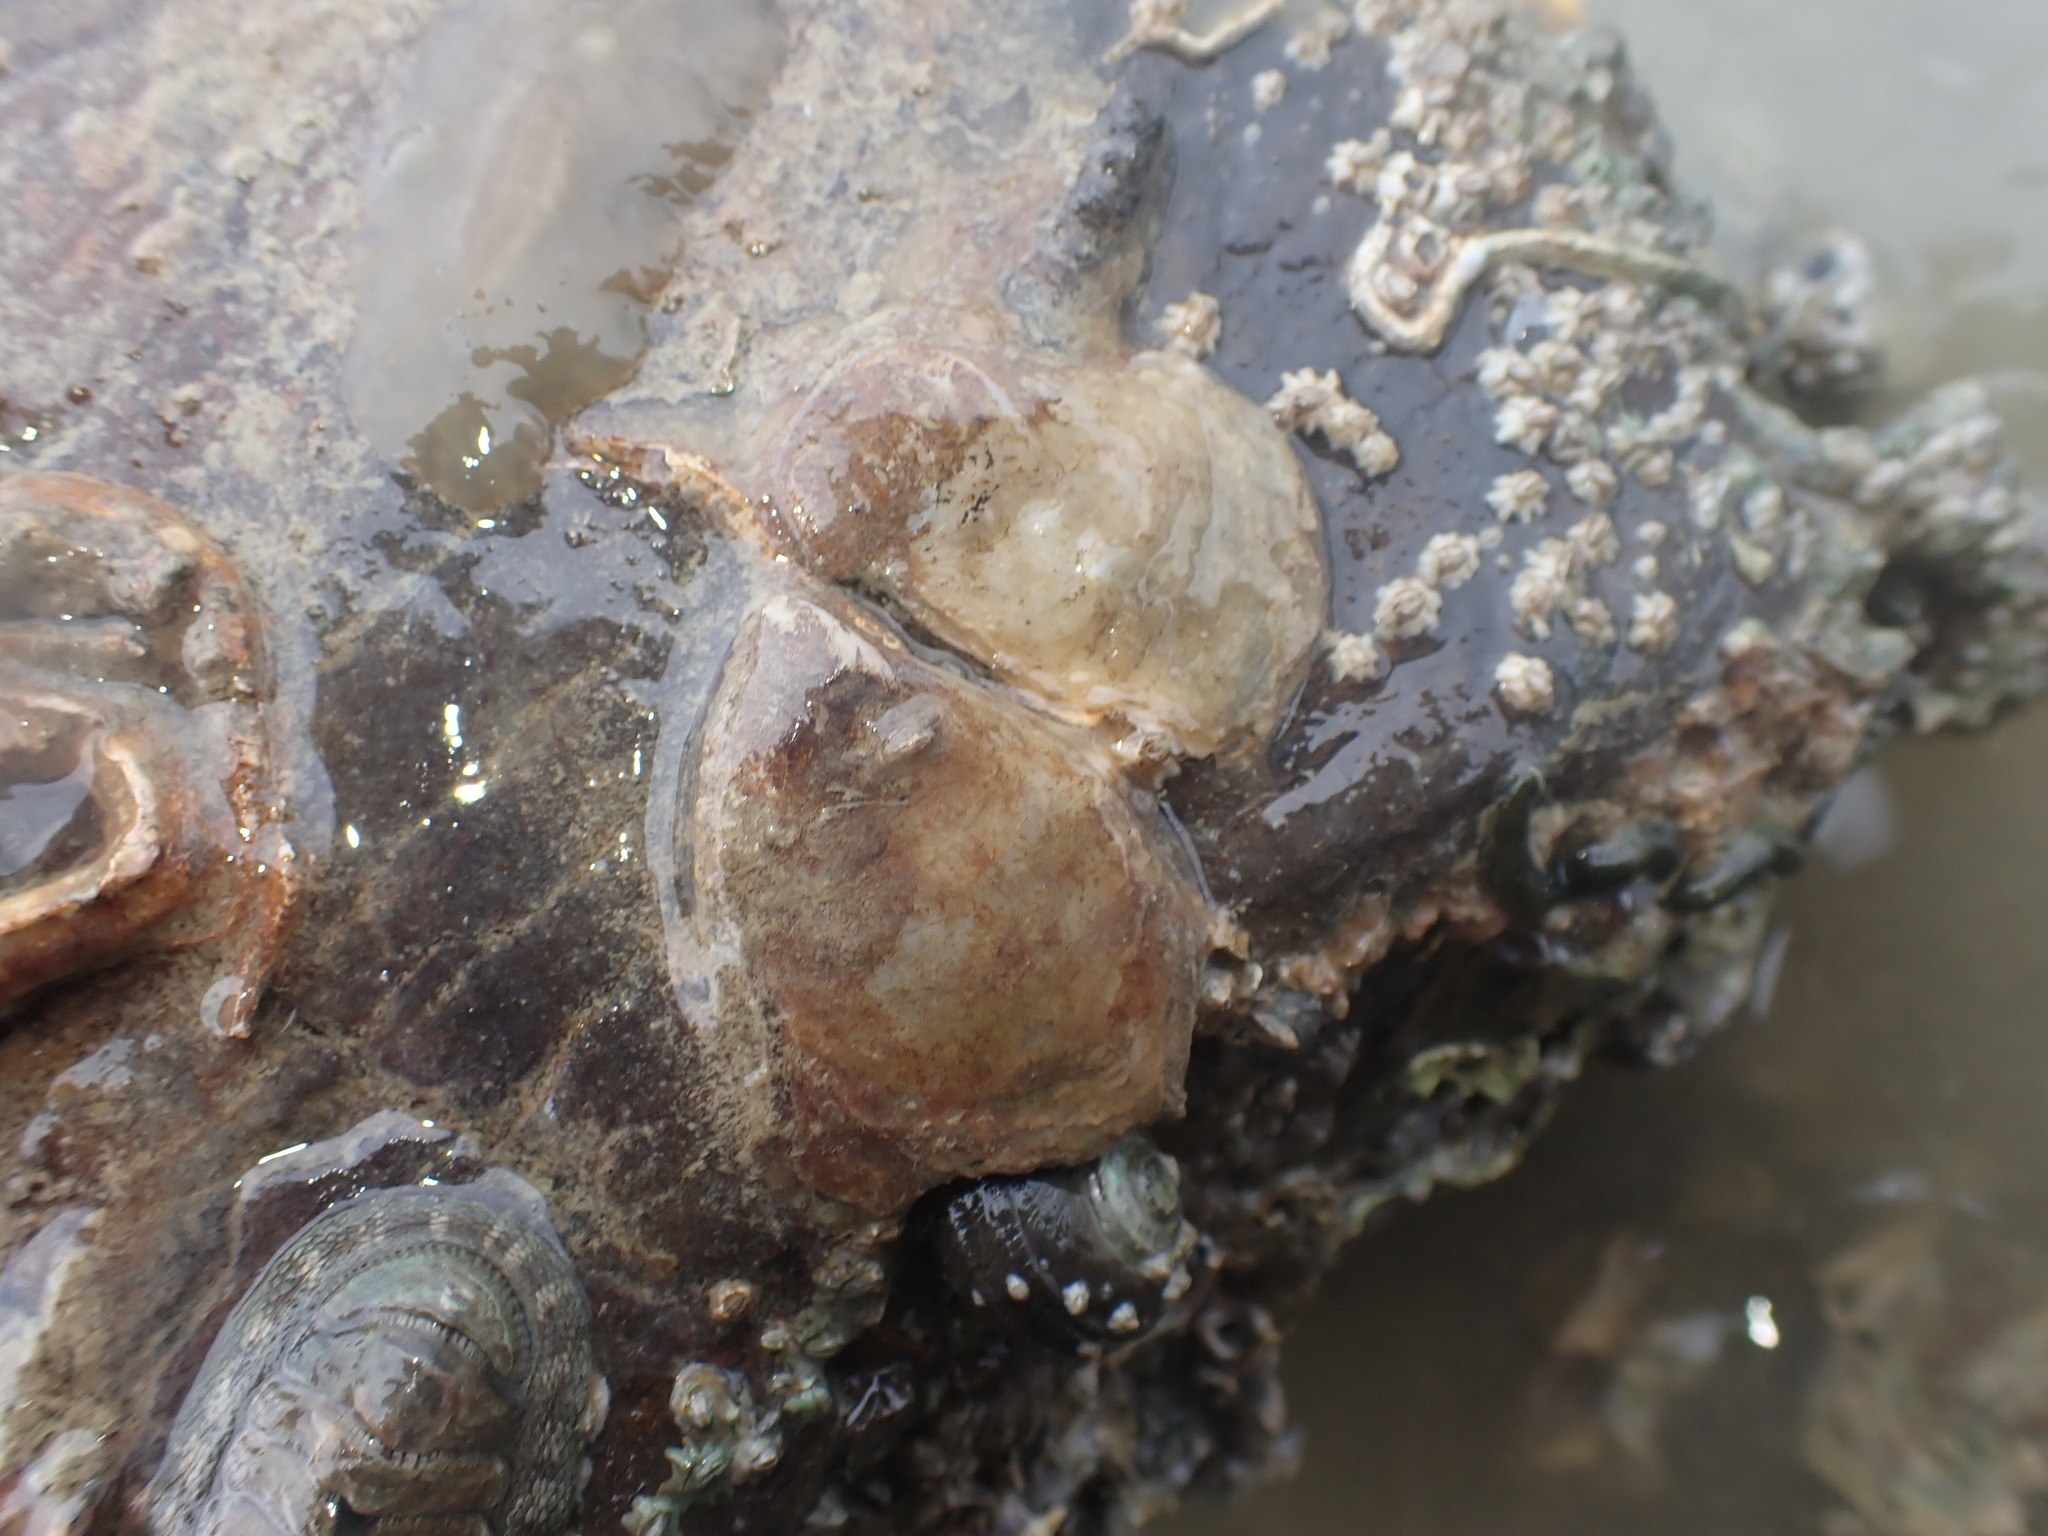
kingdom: Animalia
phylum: Mollusca
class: Bivalvia
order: Ostreida
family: Ostreidae
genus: Ostrea
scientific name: Ostrea chilensis
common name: Chilean oyster
